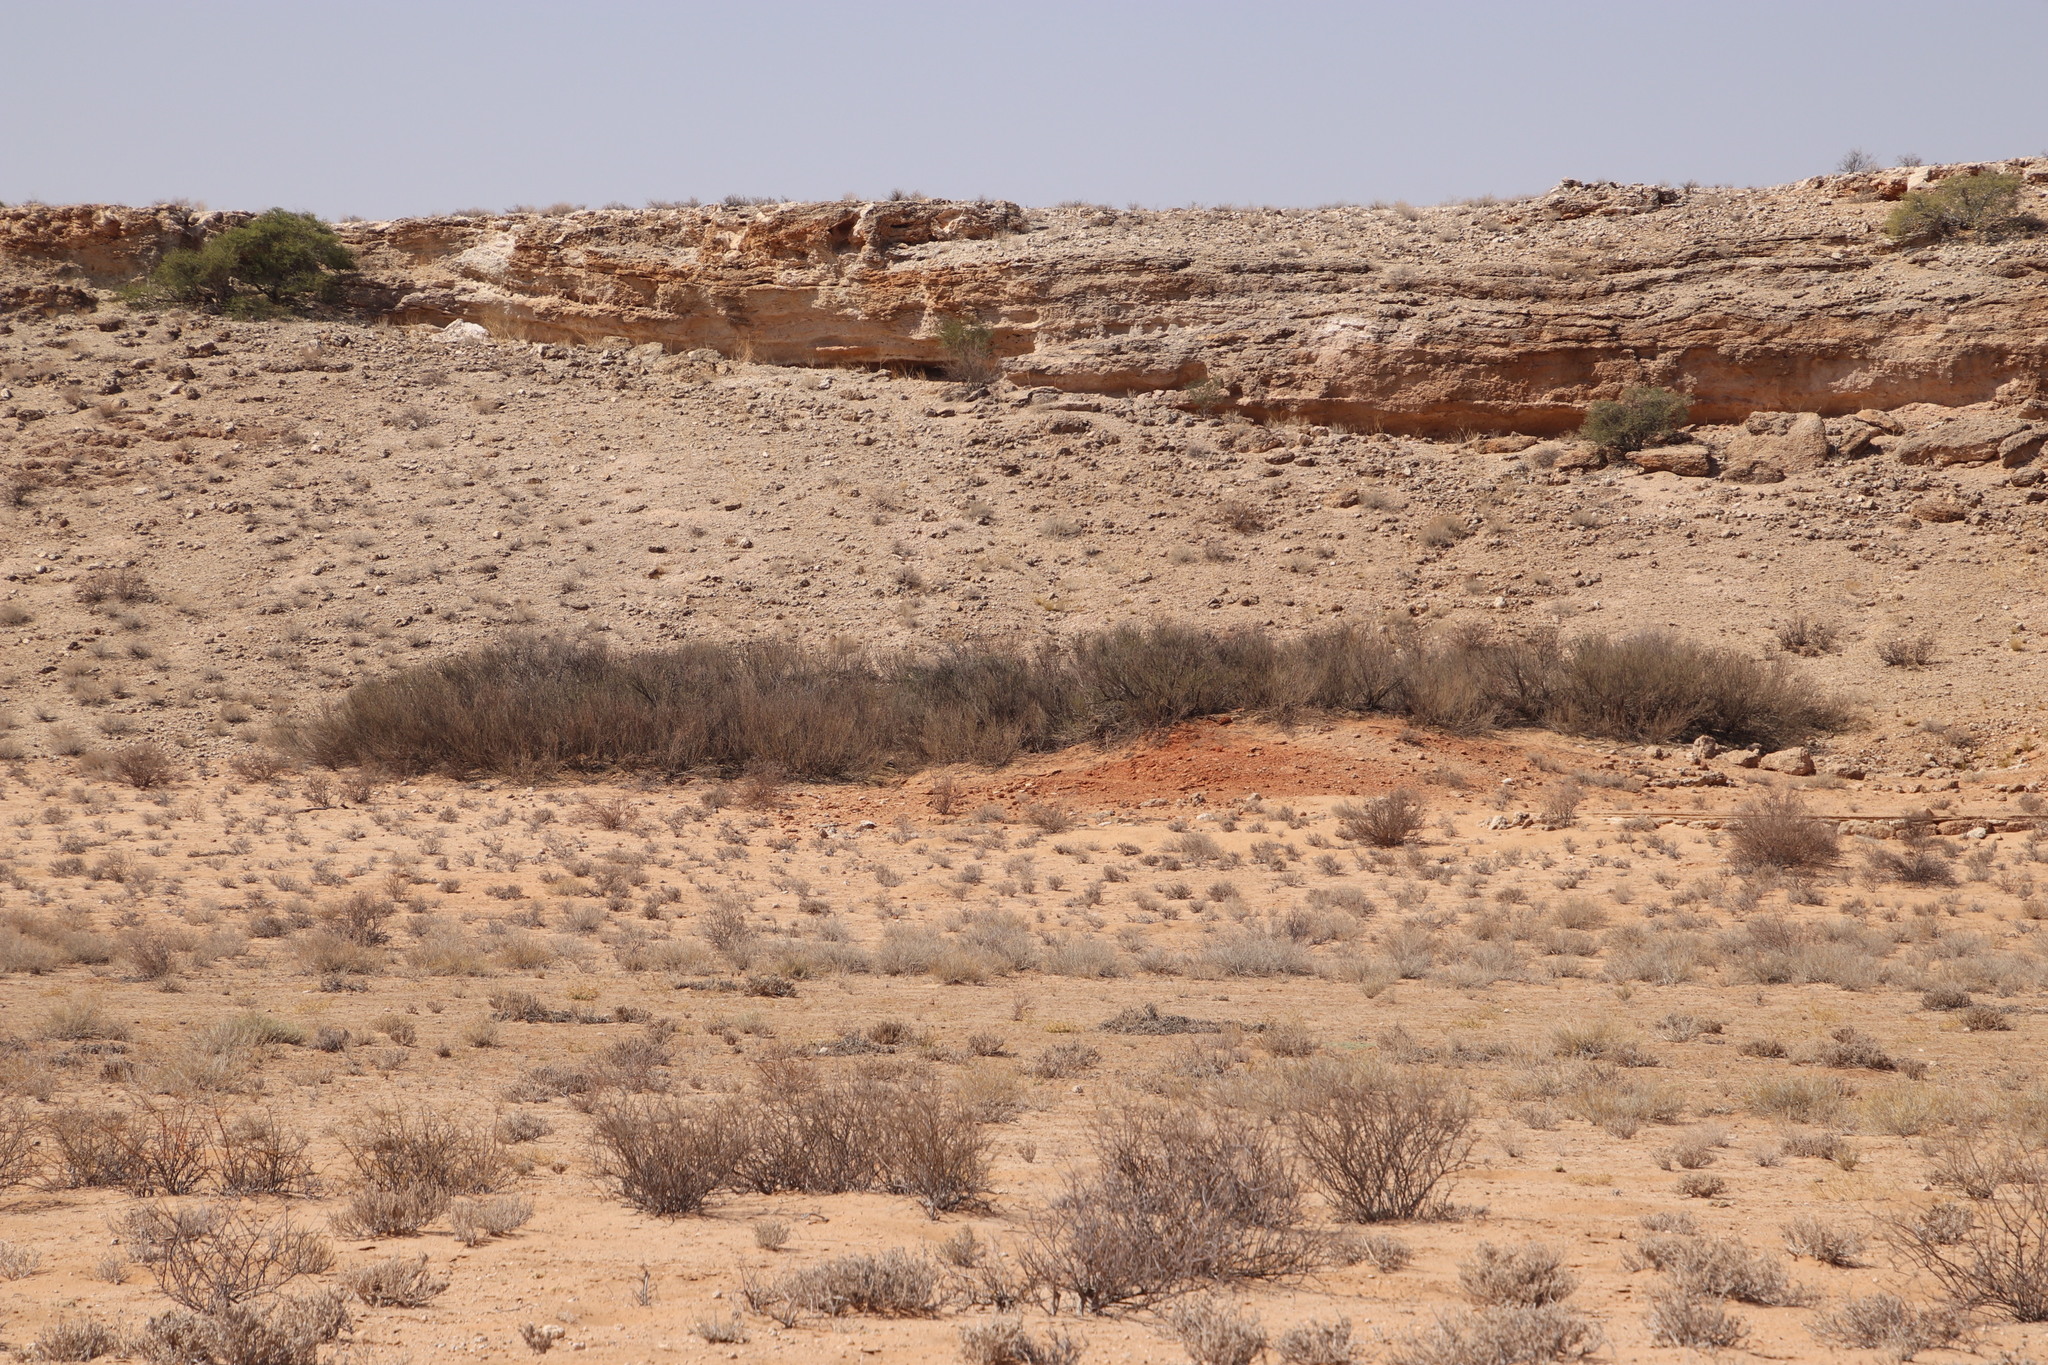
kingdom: Plantae
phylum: Tracheophyta
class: Magnoliopsida
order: Fabales
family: Fabaceae
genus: Vachellia
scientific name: Vachellia hebeclada
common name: Candle thorn
